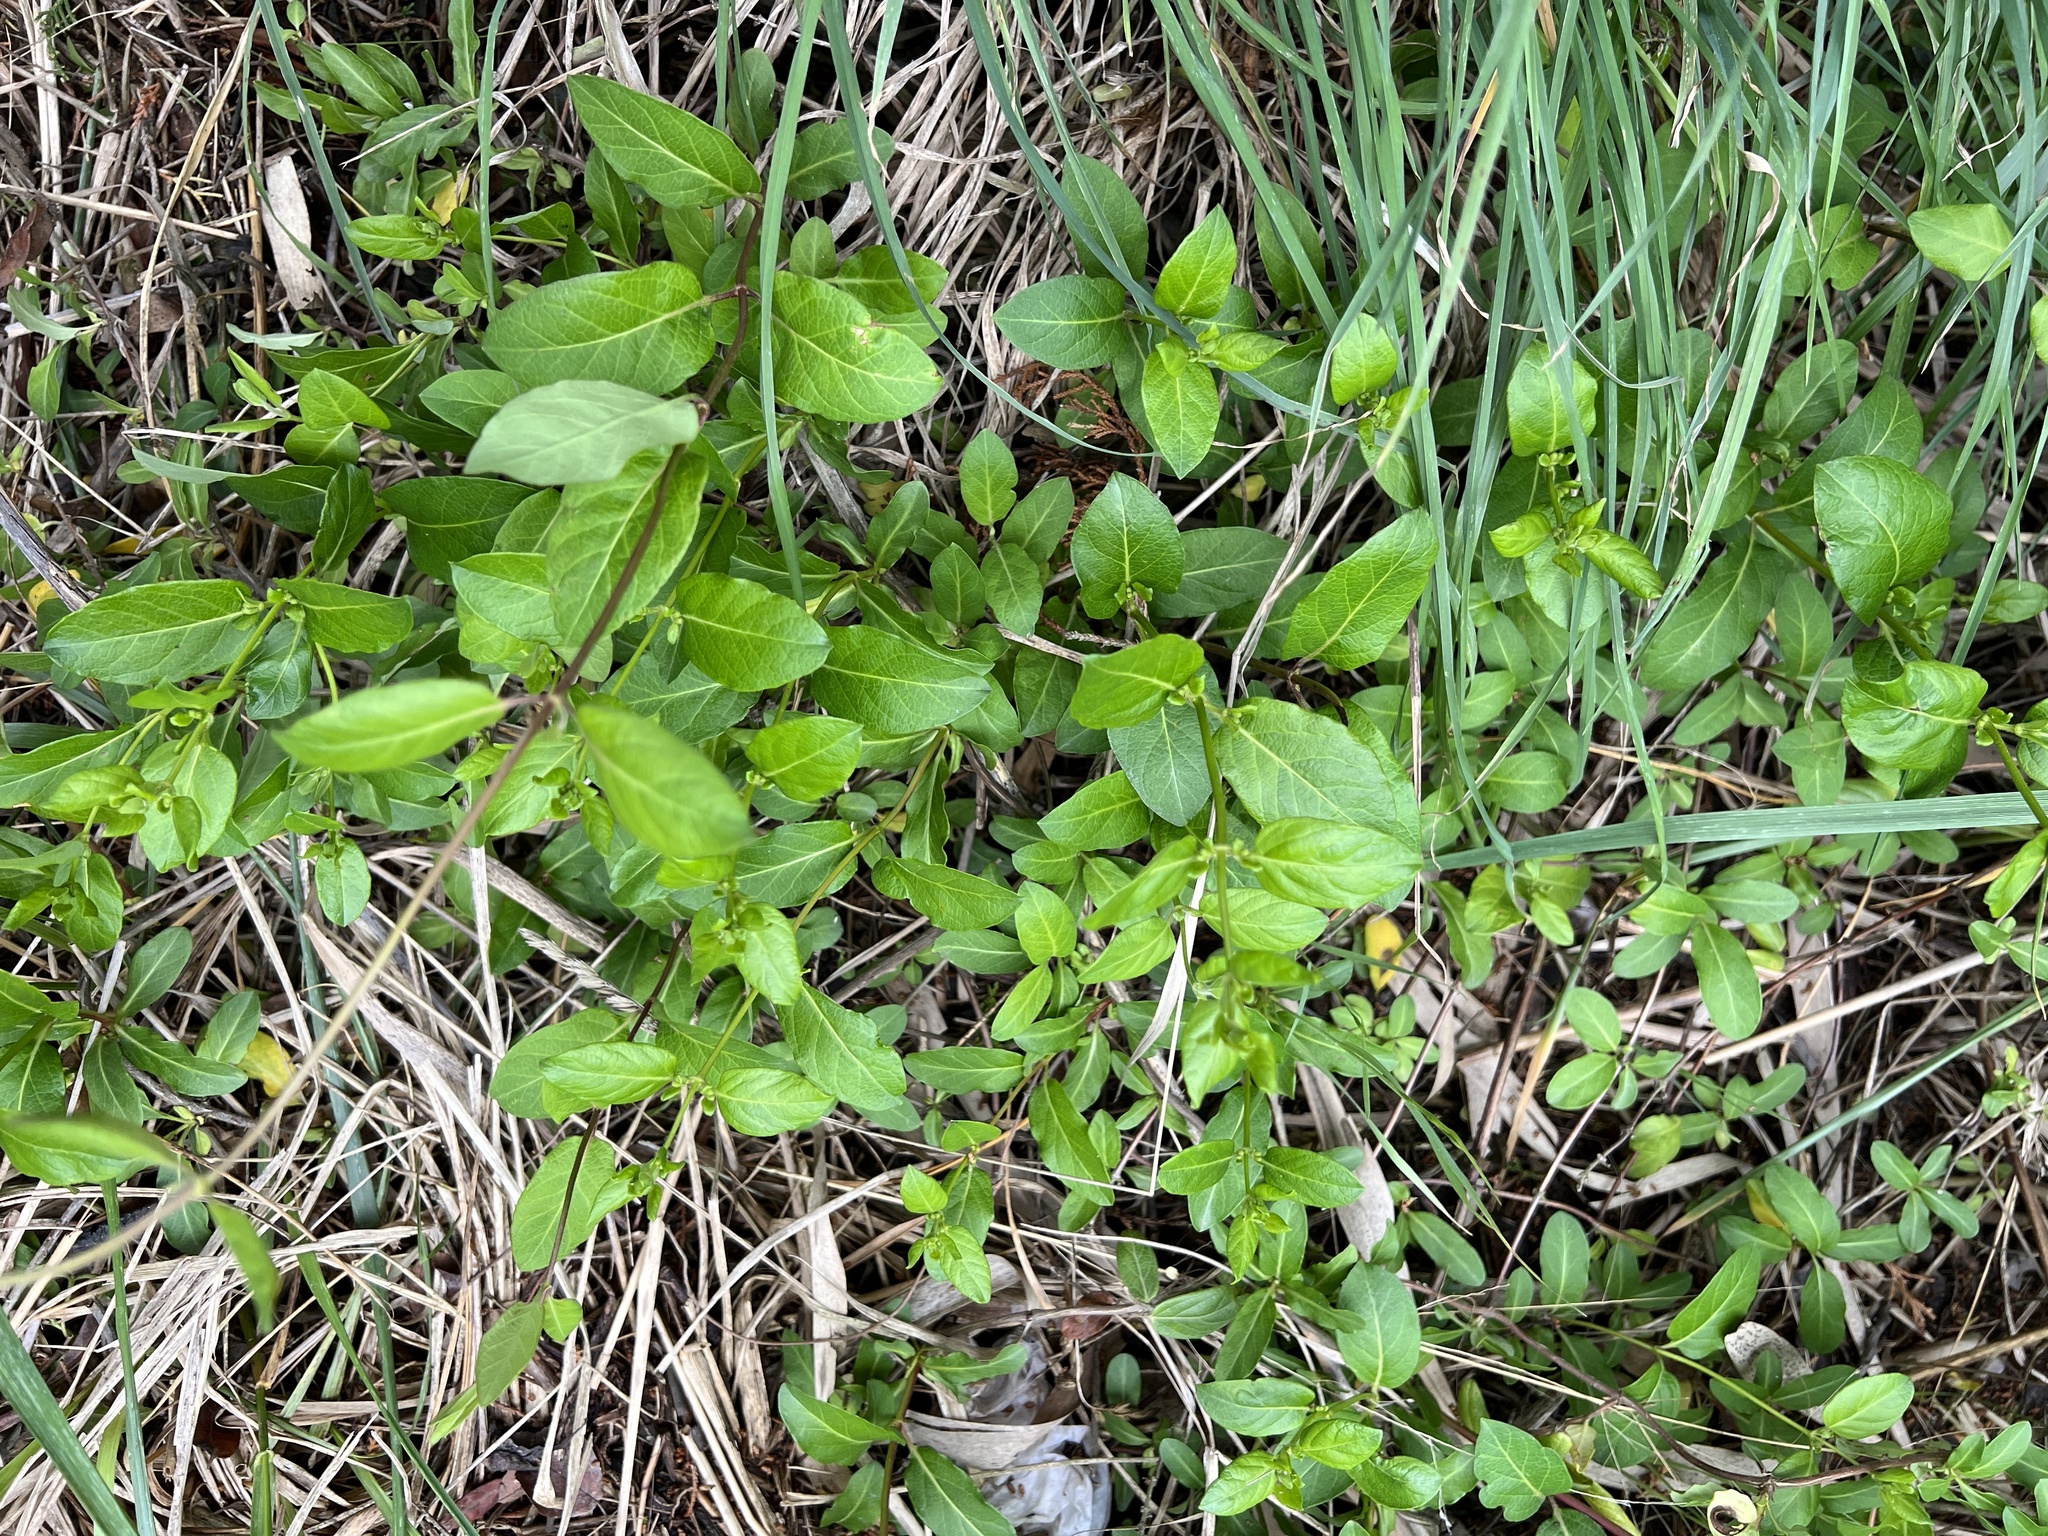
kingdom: Plantae
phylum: Tracheophyta
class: Magnoliopsida
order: Dipsacales
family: Caprifoliaceae
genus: Lonicera
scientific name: Lonicera japonica
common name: Japanese honeysuckle
